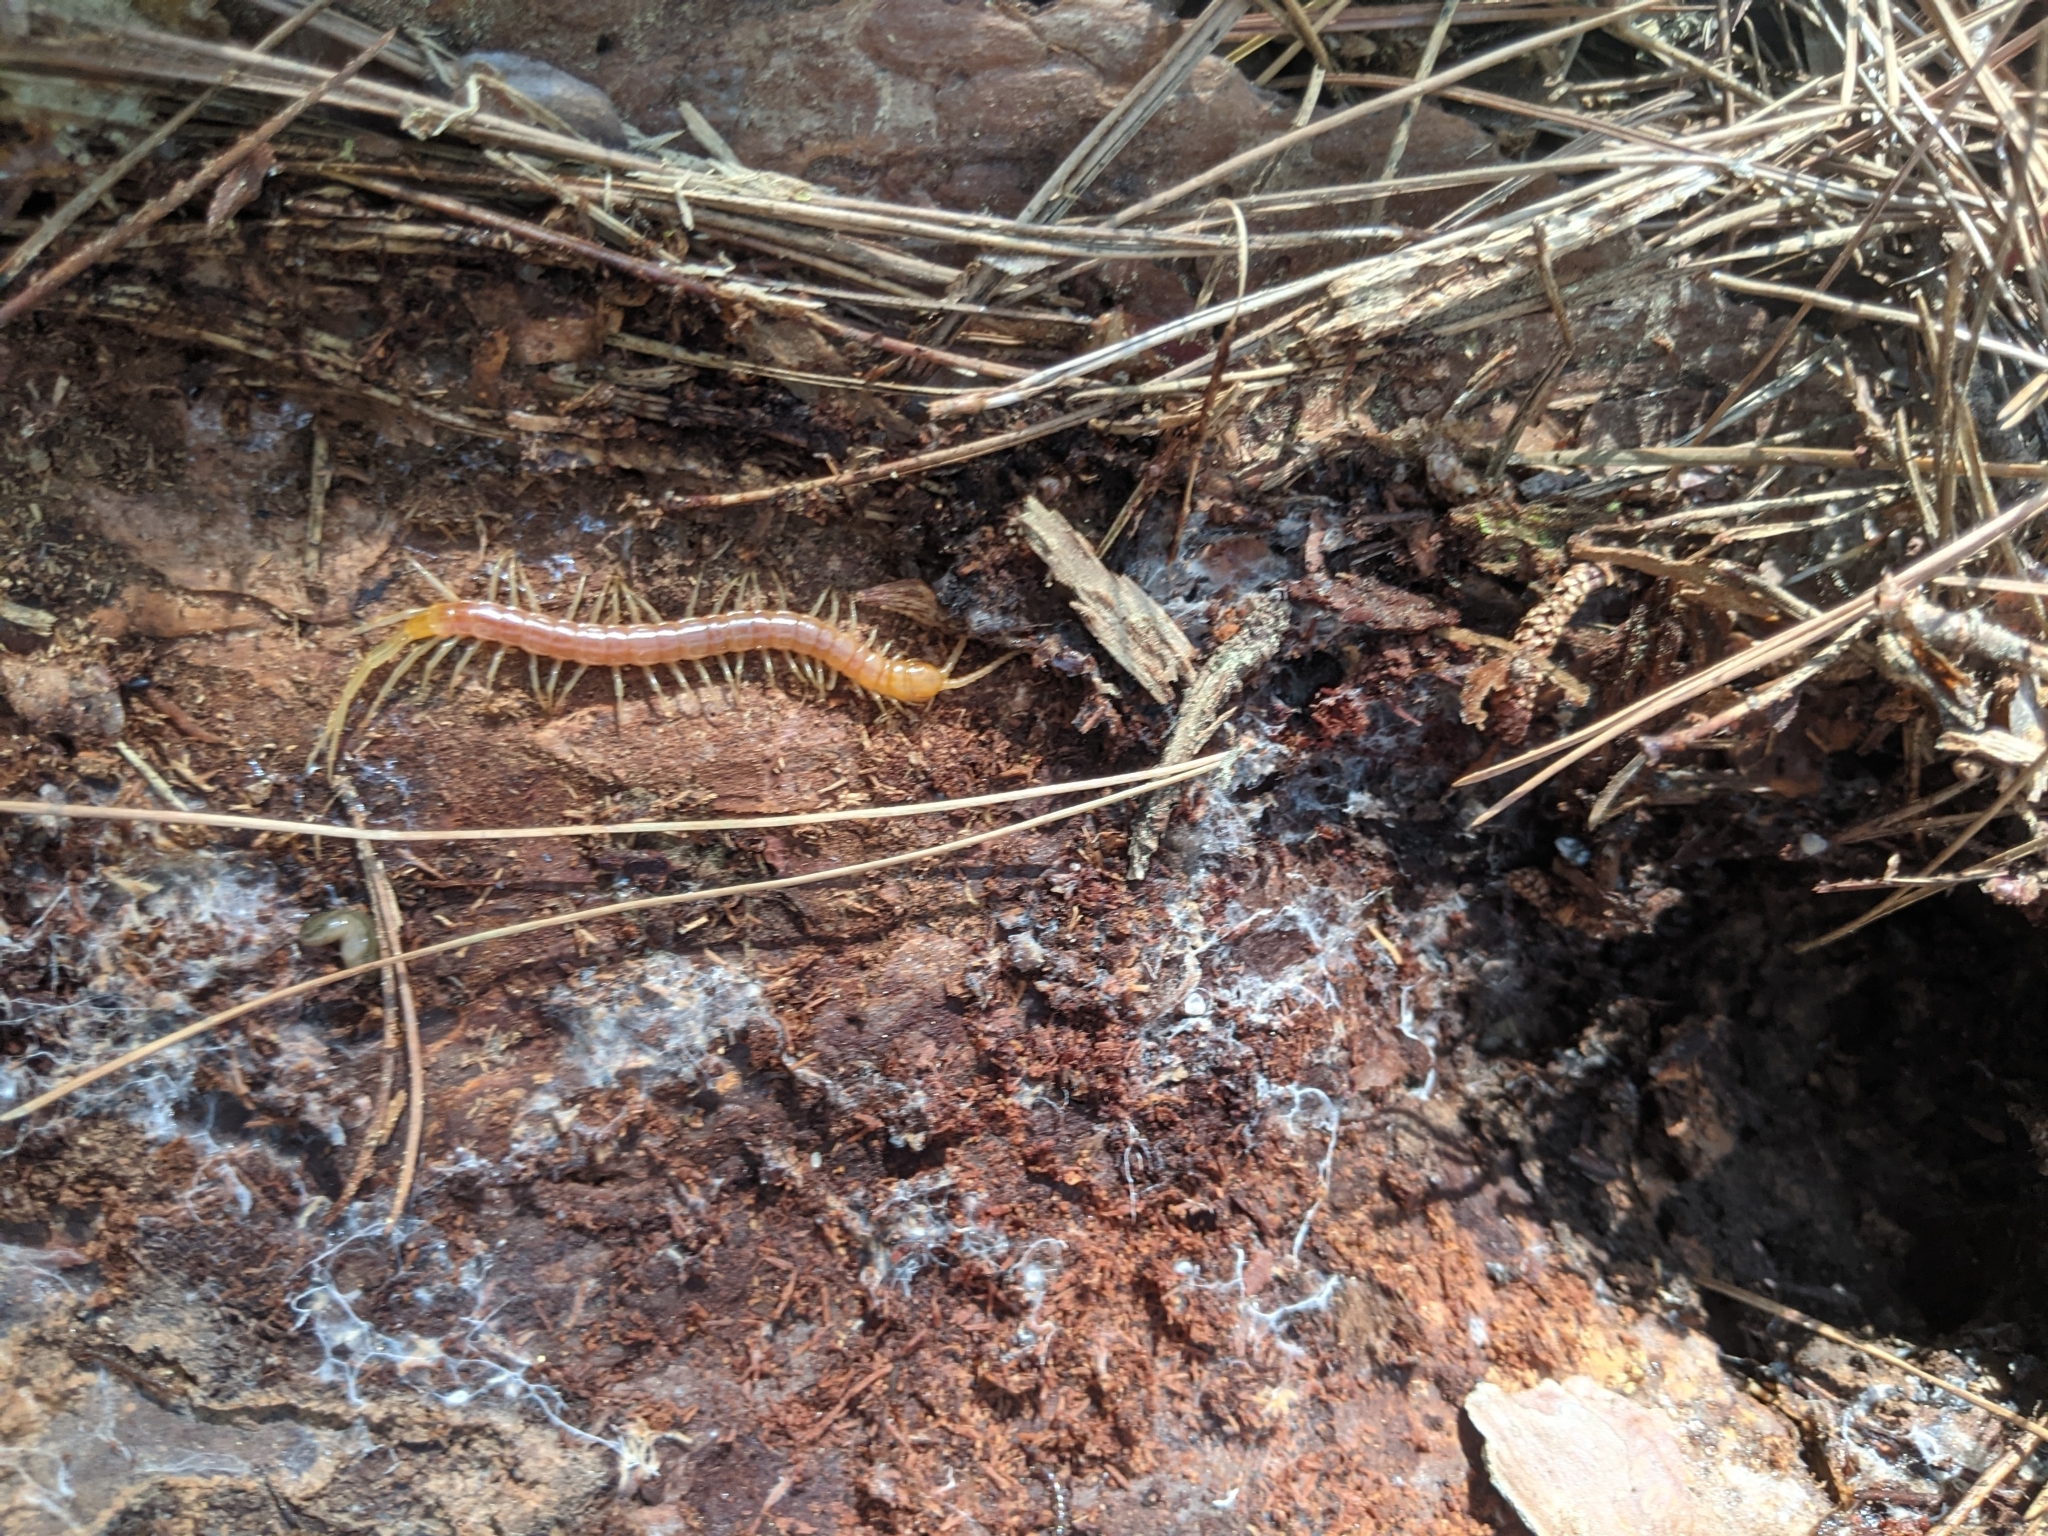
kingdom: Animalia
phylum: Arthropoda
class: Chilopoda
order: Scolopendromorpha
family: Scolopocryptopidae
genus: Scolopocryptops
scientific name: Scolopocryptops sexspinosus
